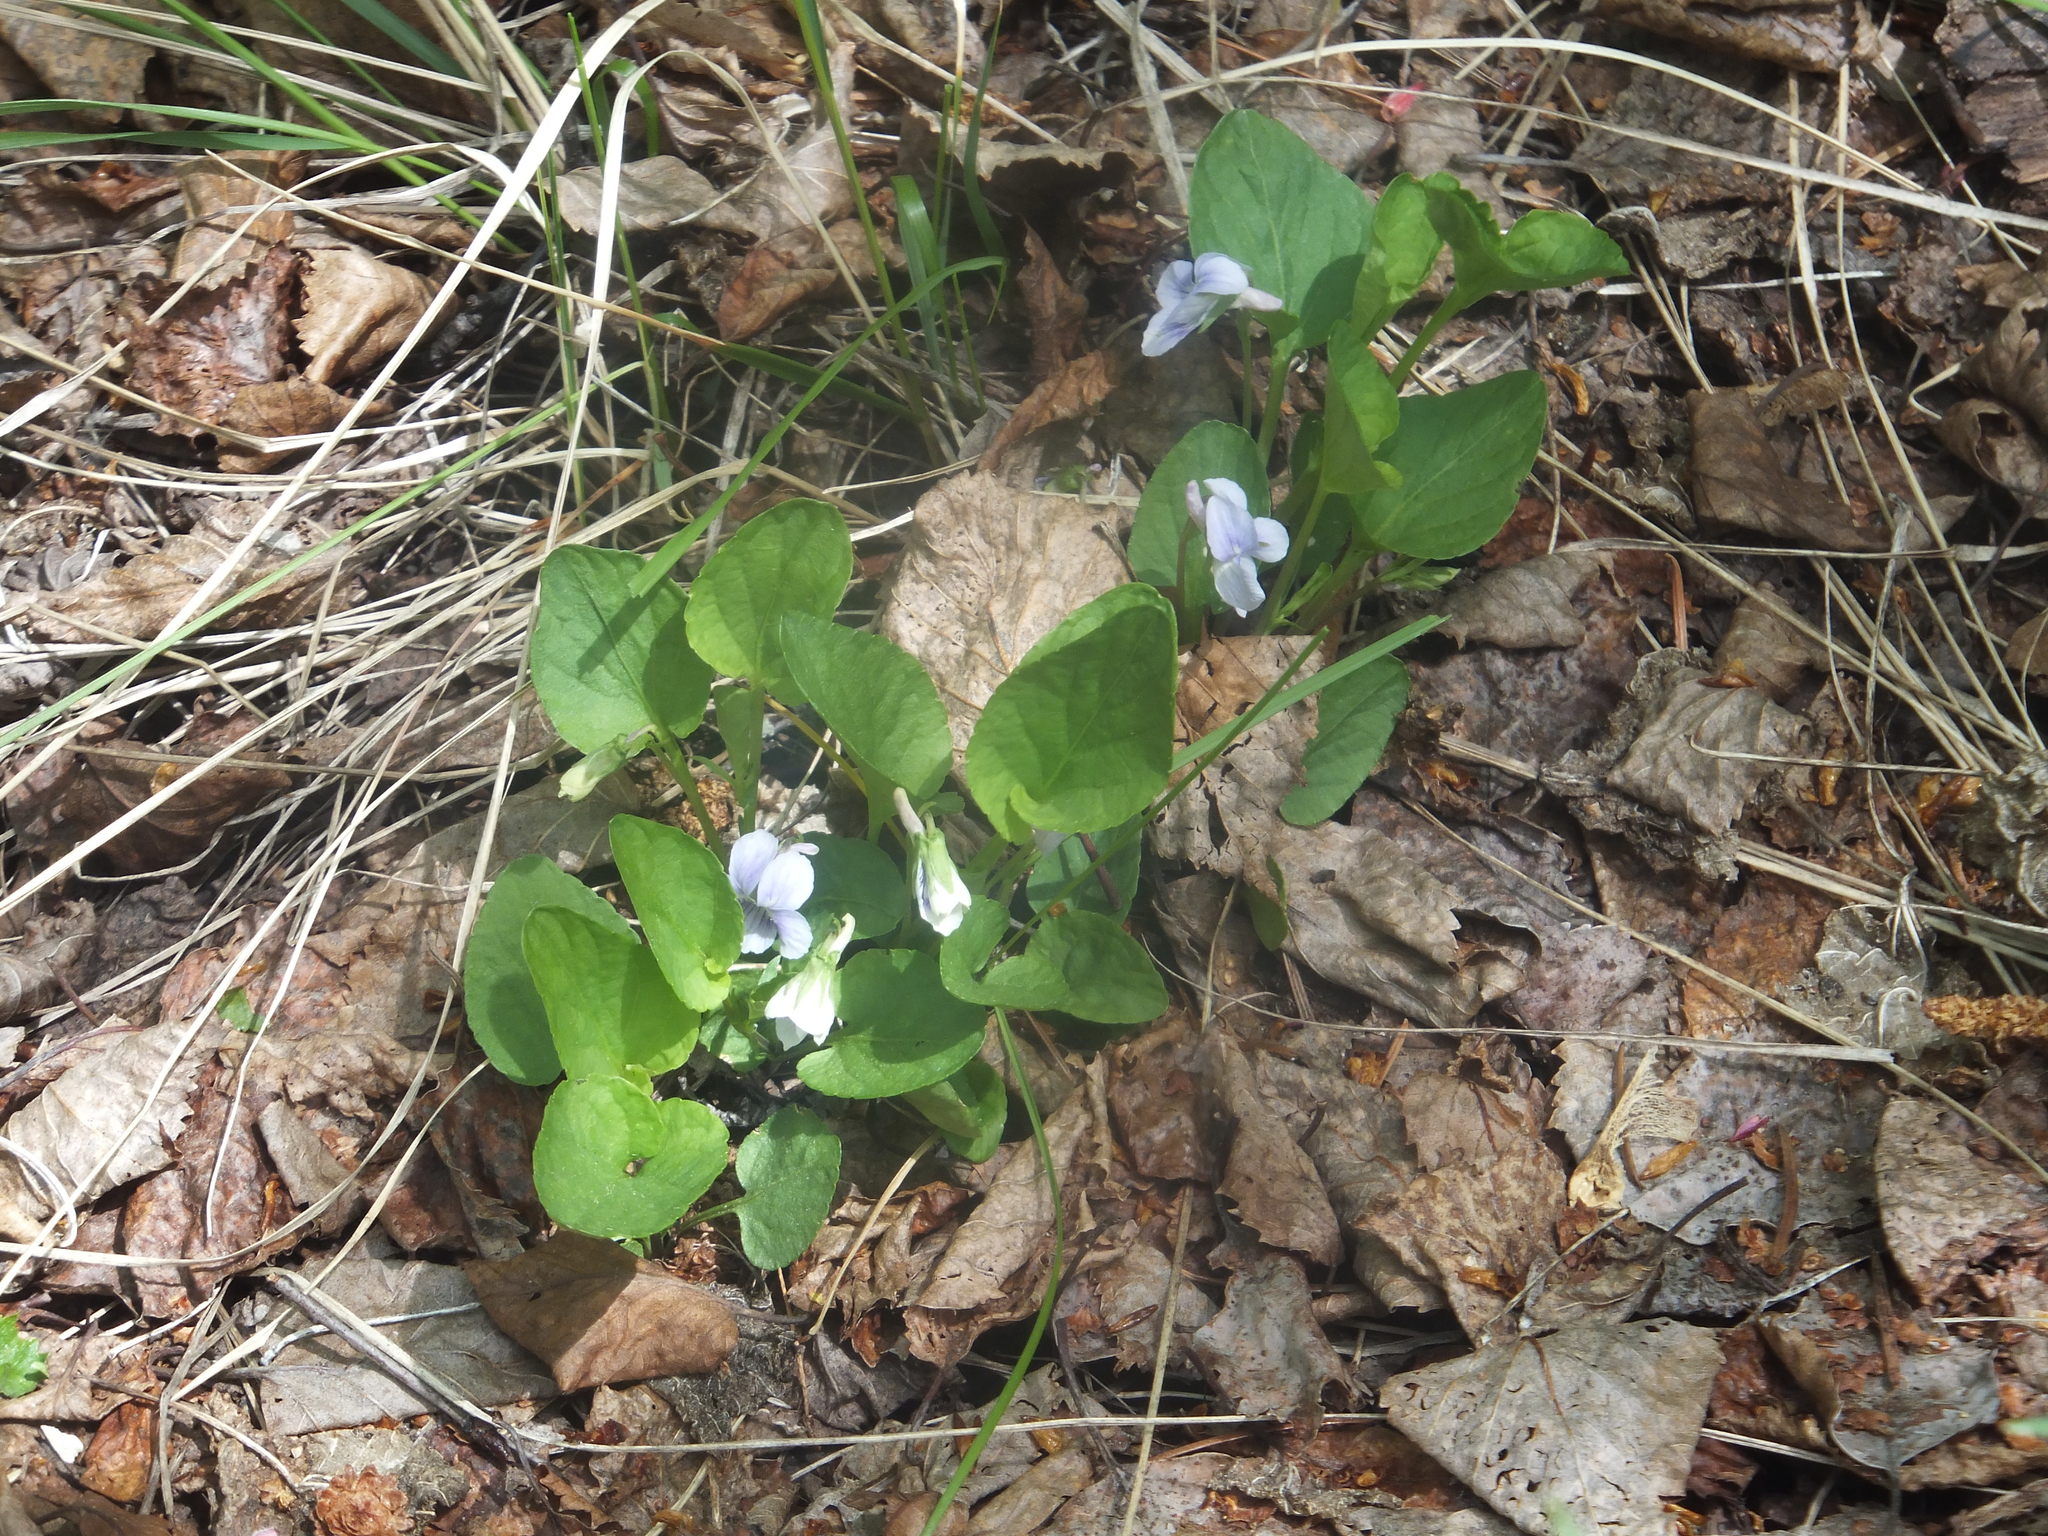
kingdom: Plantae
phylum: Tracheophyta
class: Magnoliopsida
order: Malpighiales
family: Violaceae
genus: Viola
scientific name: Viola adunca
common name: Sand violet
